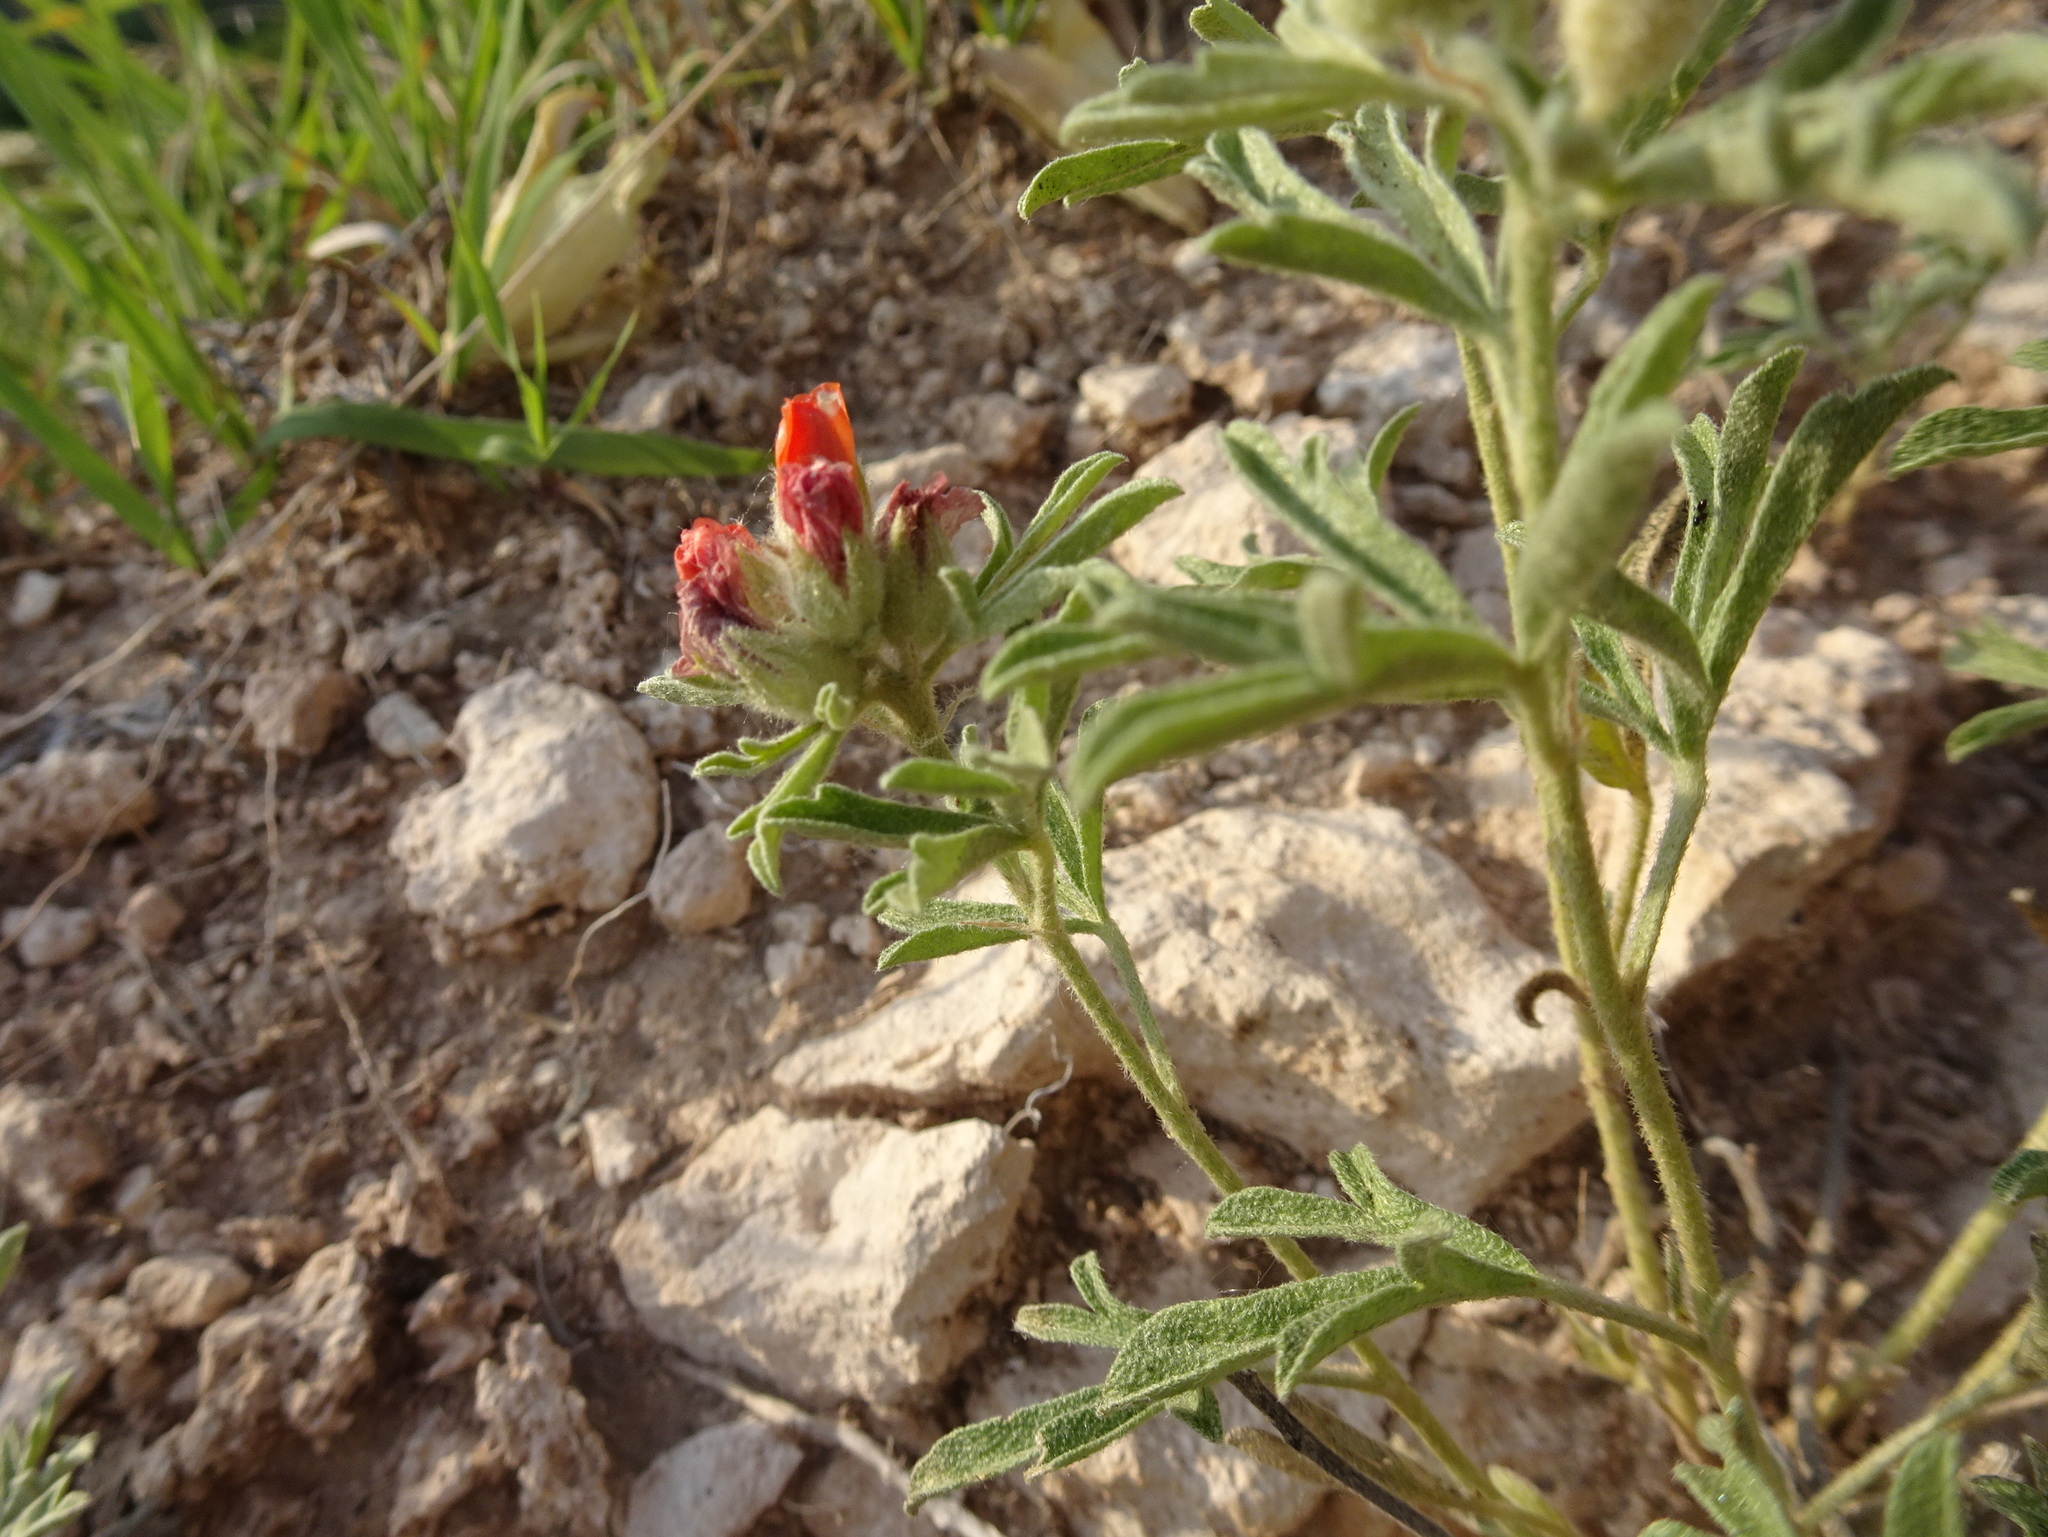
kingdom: Plantae
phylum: Tracheophyta
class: Magnoliopsida
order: Malvales
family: Malvaceae
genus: Sphaeralcea
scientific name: Sphaeralcea coccinea
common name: Moss-rose
